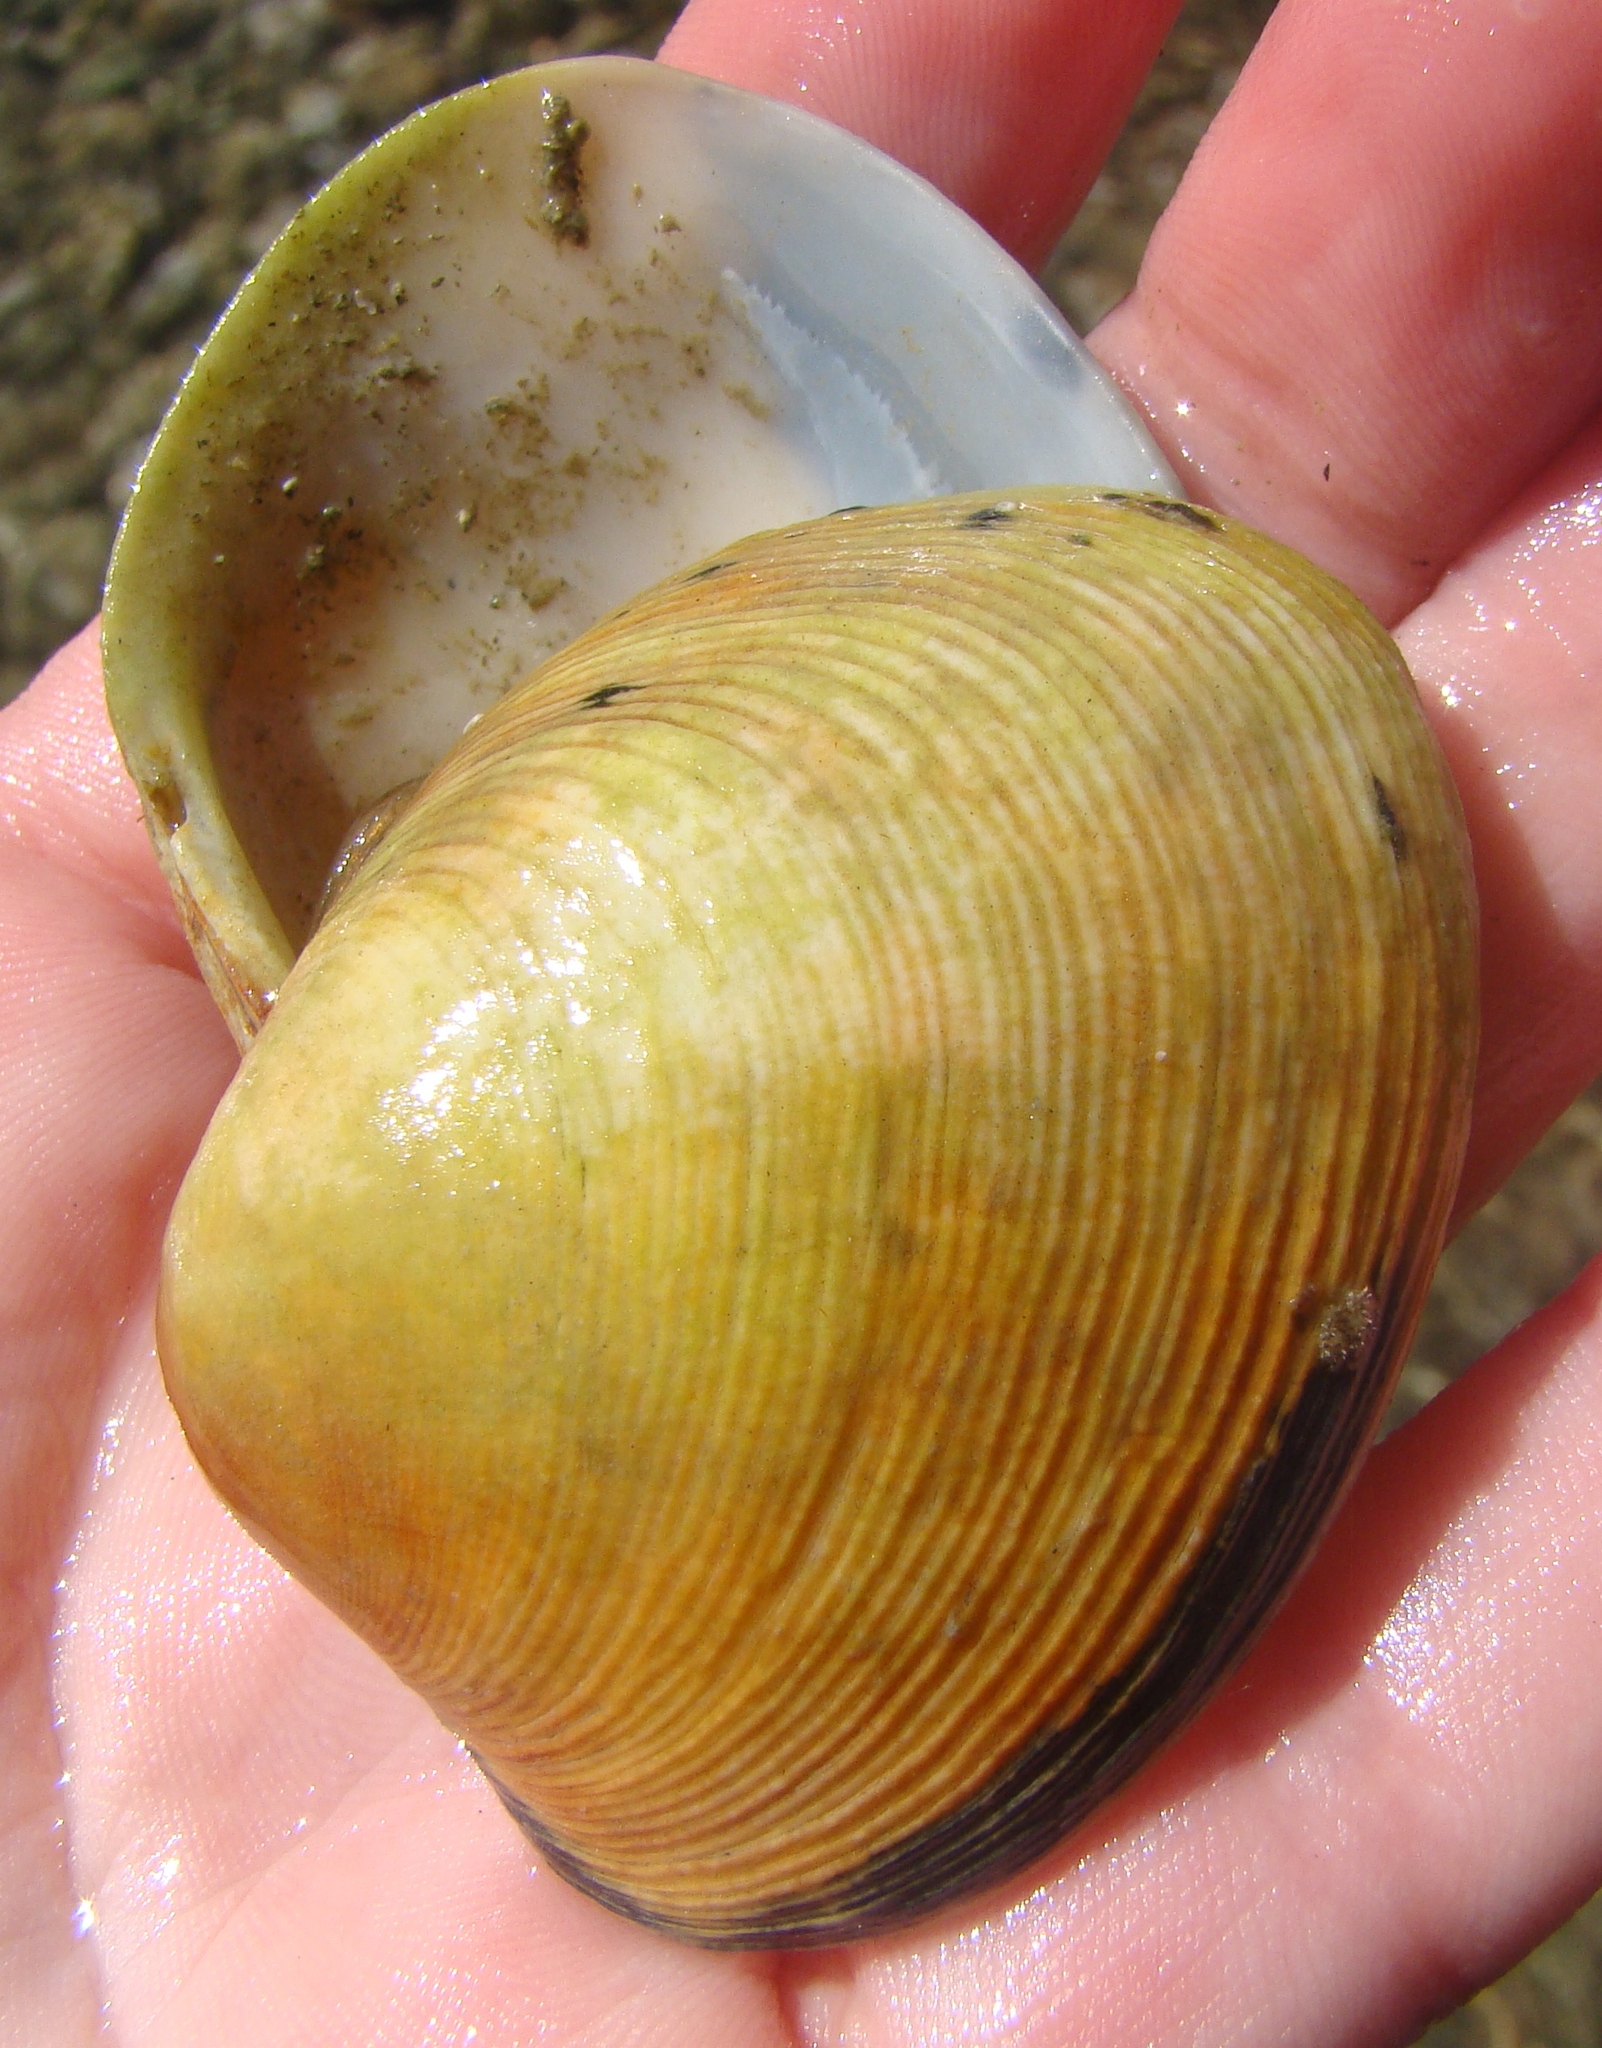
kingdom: Animalia
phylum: Mollusca
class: Bivalvia
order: Venerida
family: Veneridae
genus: Venerupis
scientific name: Venerupis largillierti
